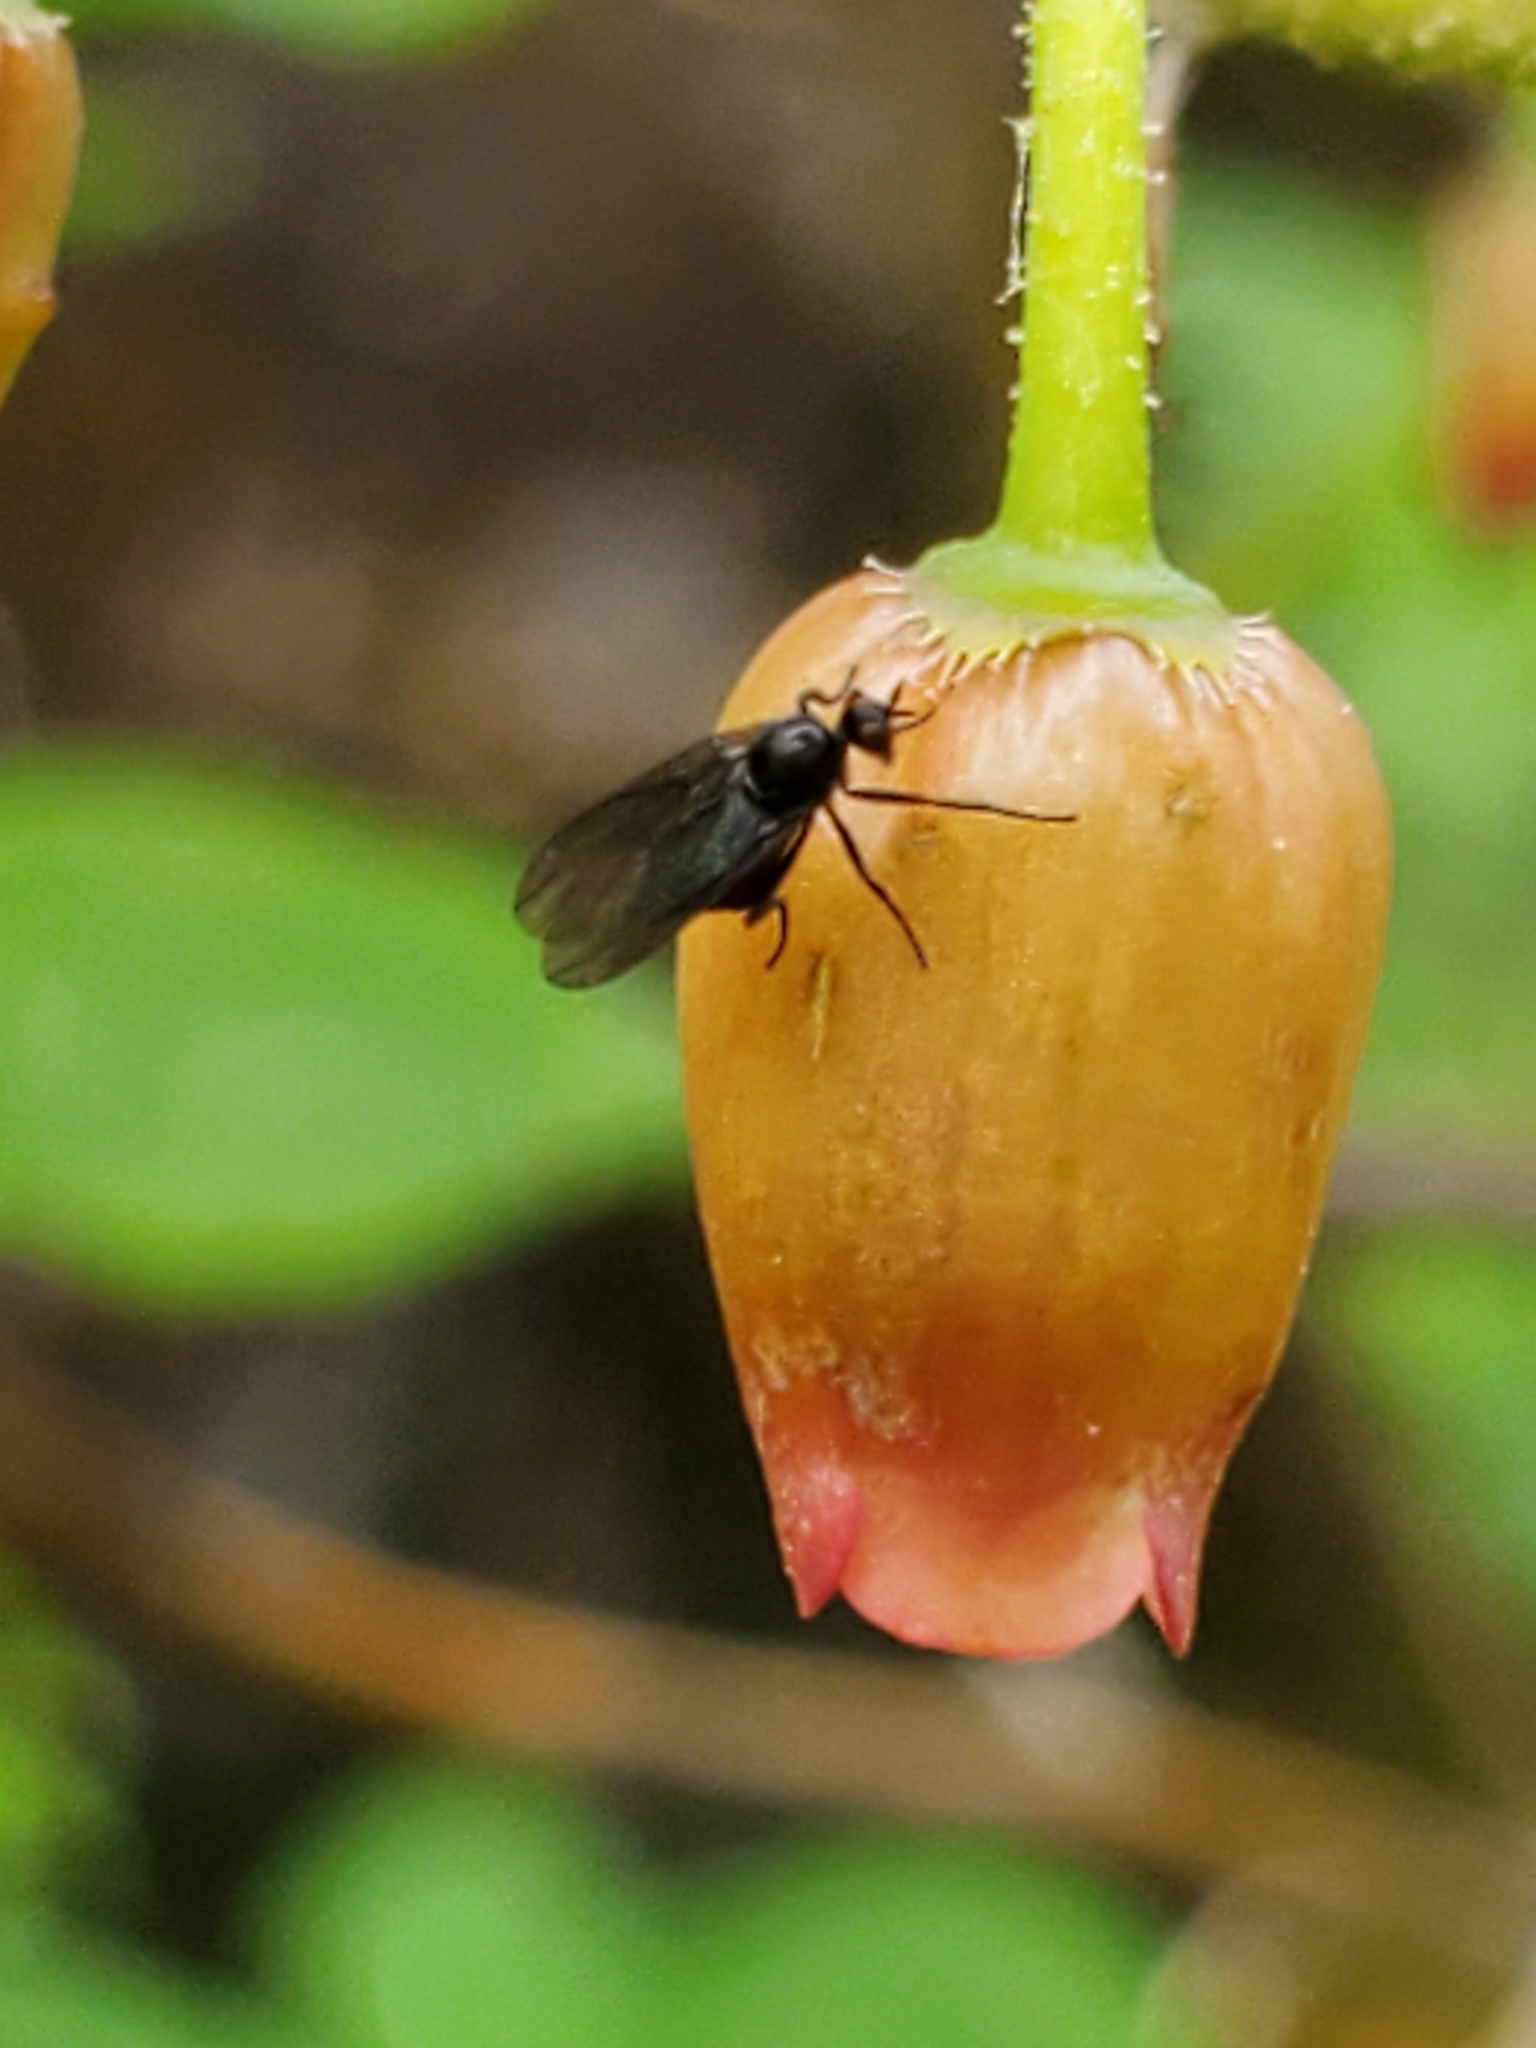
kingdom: Plantae
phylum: Tracheophyta
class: Magnoliopsida
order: Ericales
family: Ericaceae
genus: Rhododendron
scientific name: Rhododendron menziesii
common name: Pacific menziesia
